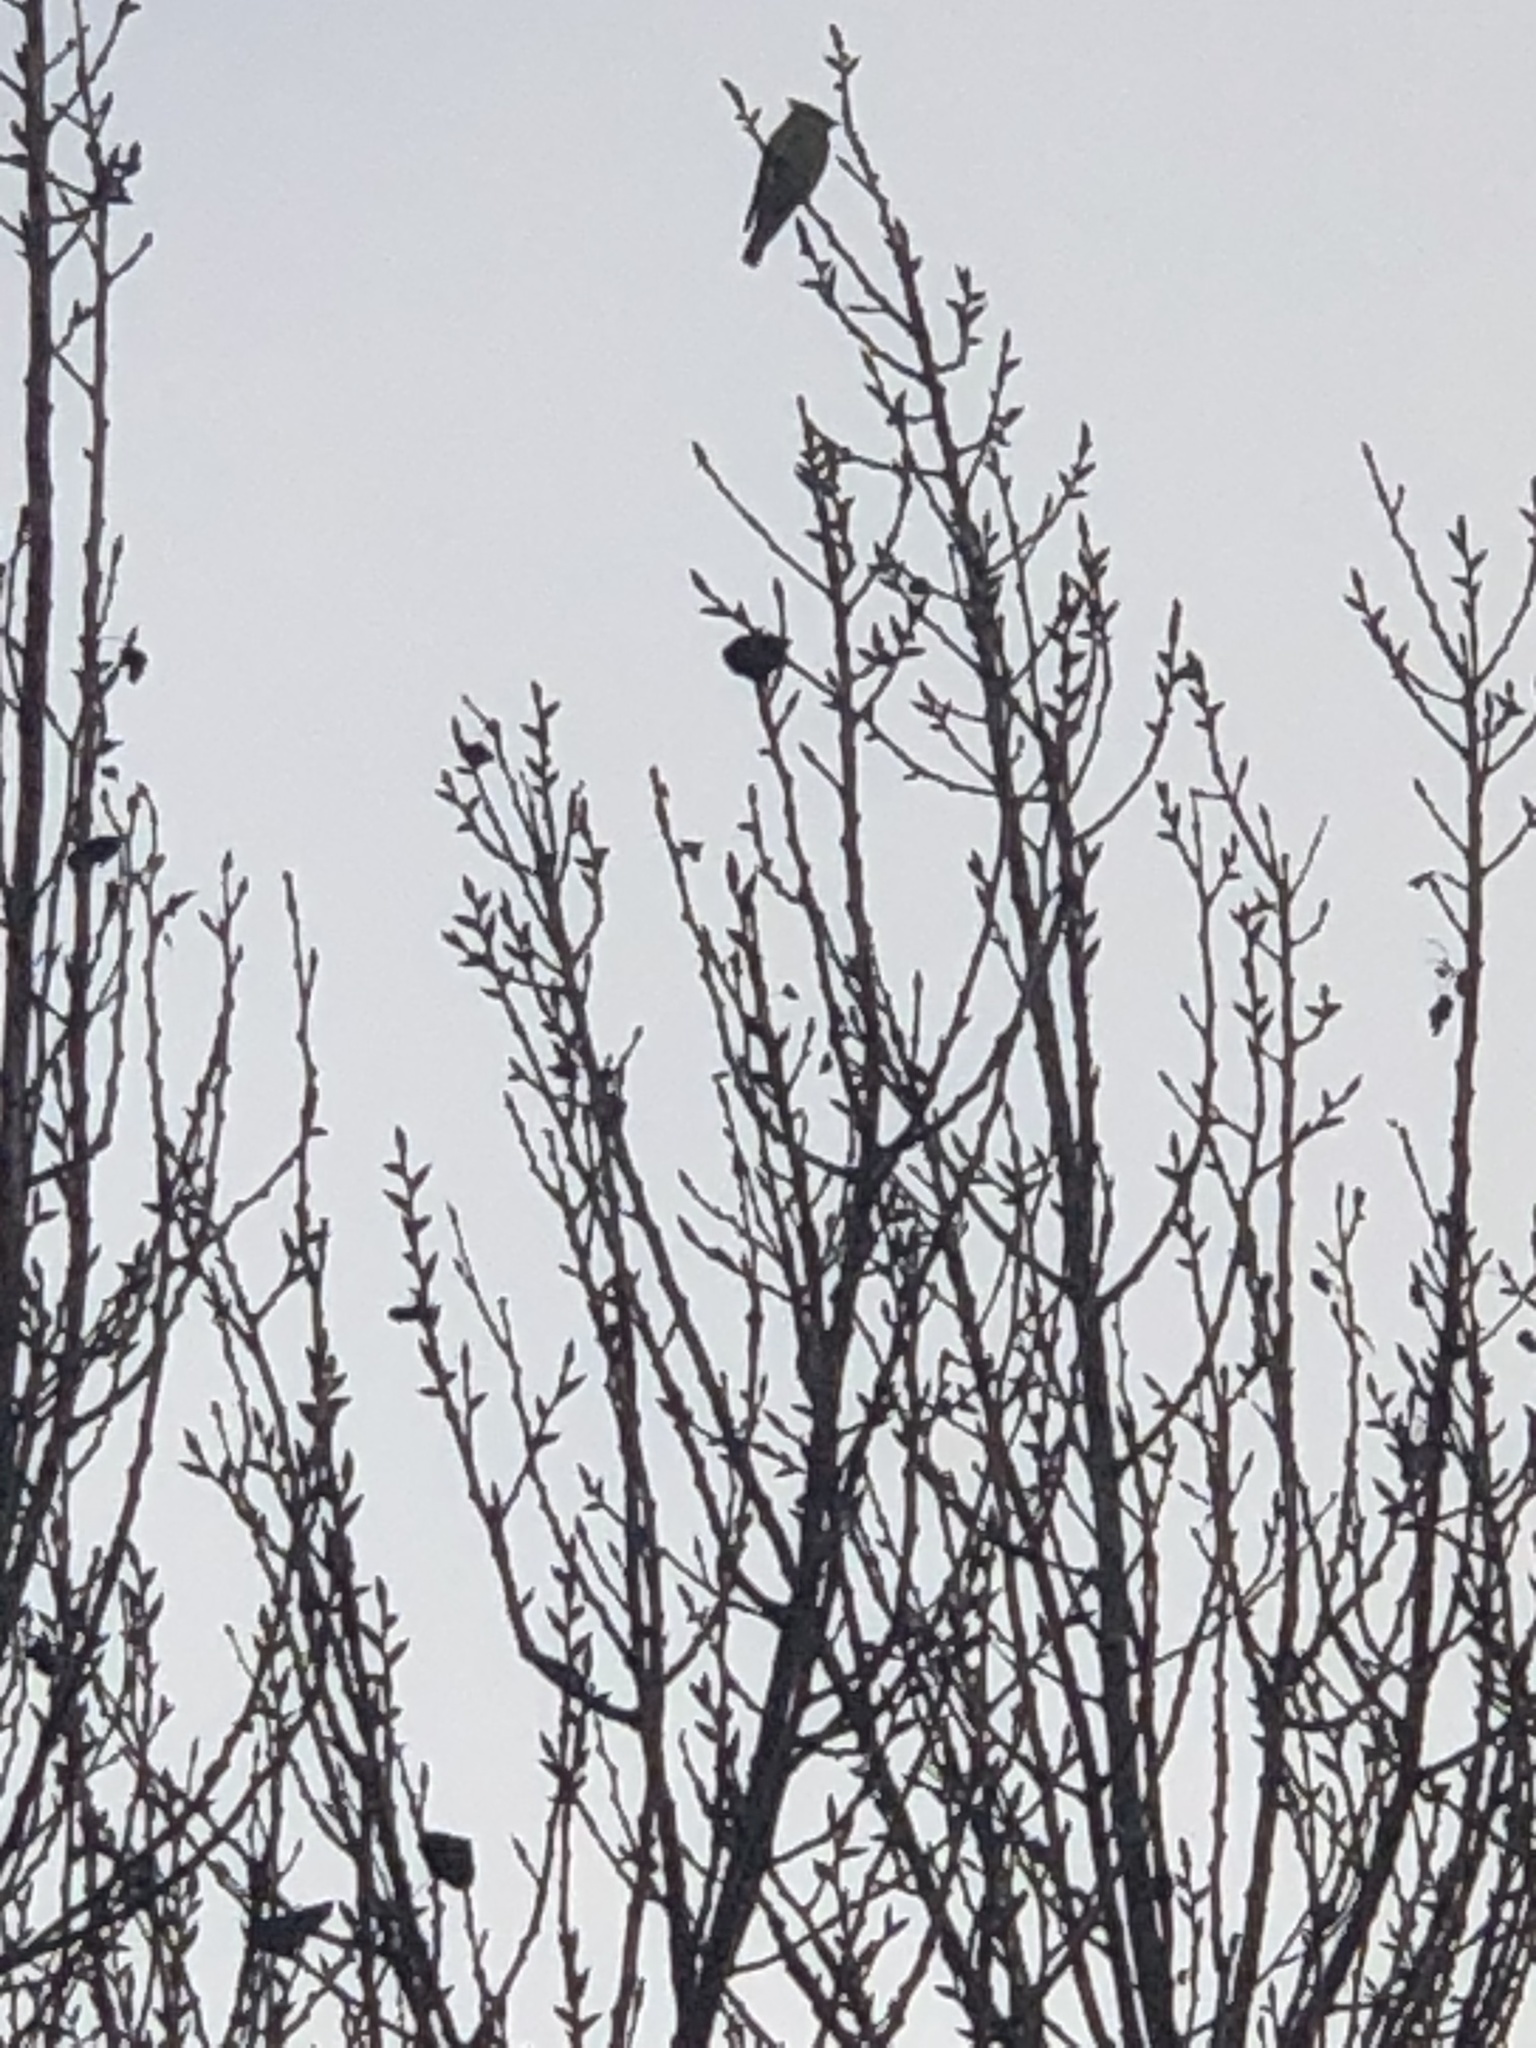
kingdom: Animalia
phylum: Chordata
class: Aves
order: Passeriformes
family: Bombycillidae
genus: Bombycilla
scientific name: Bombycilla cedrorum
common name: Cedar waxwing
